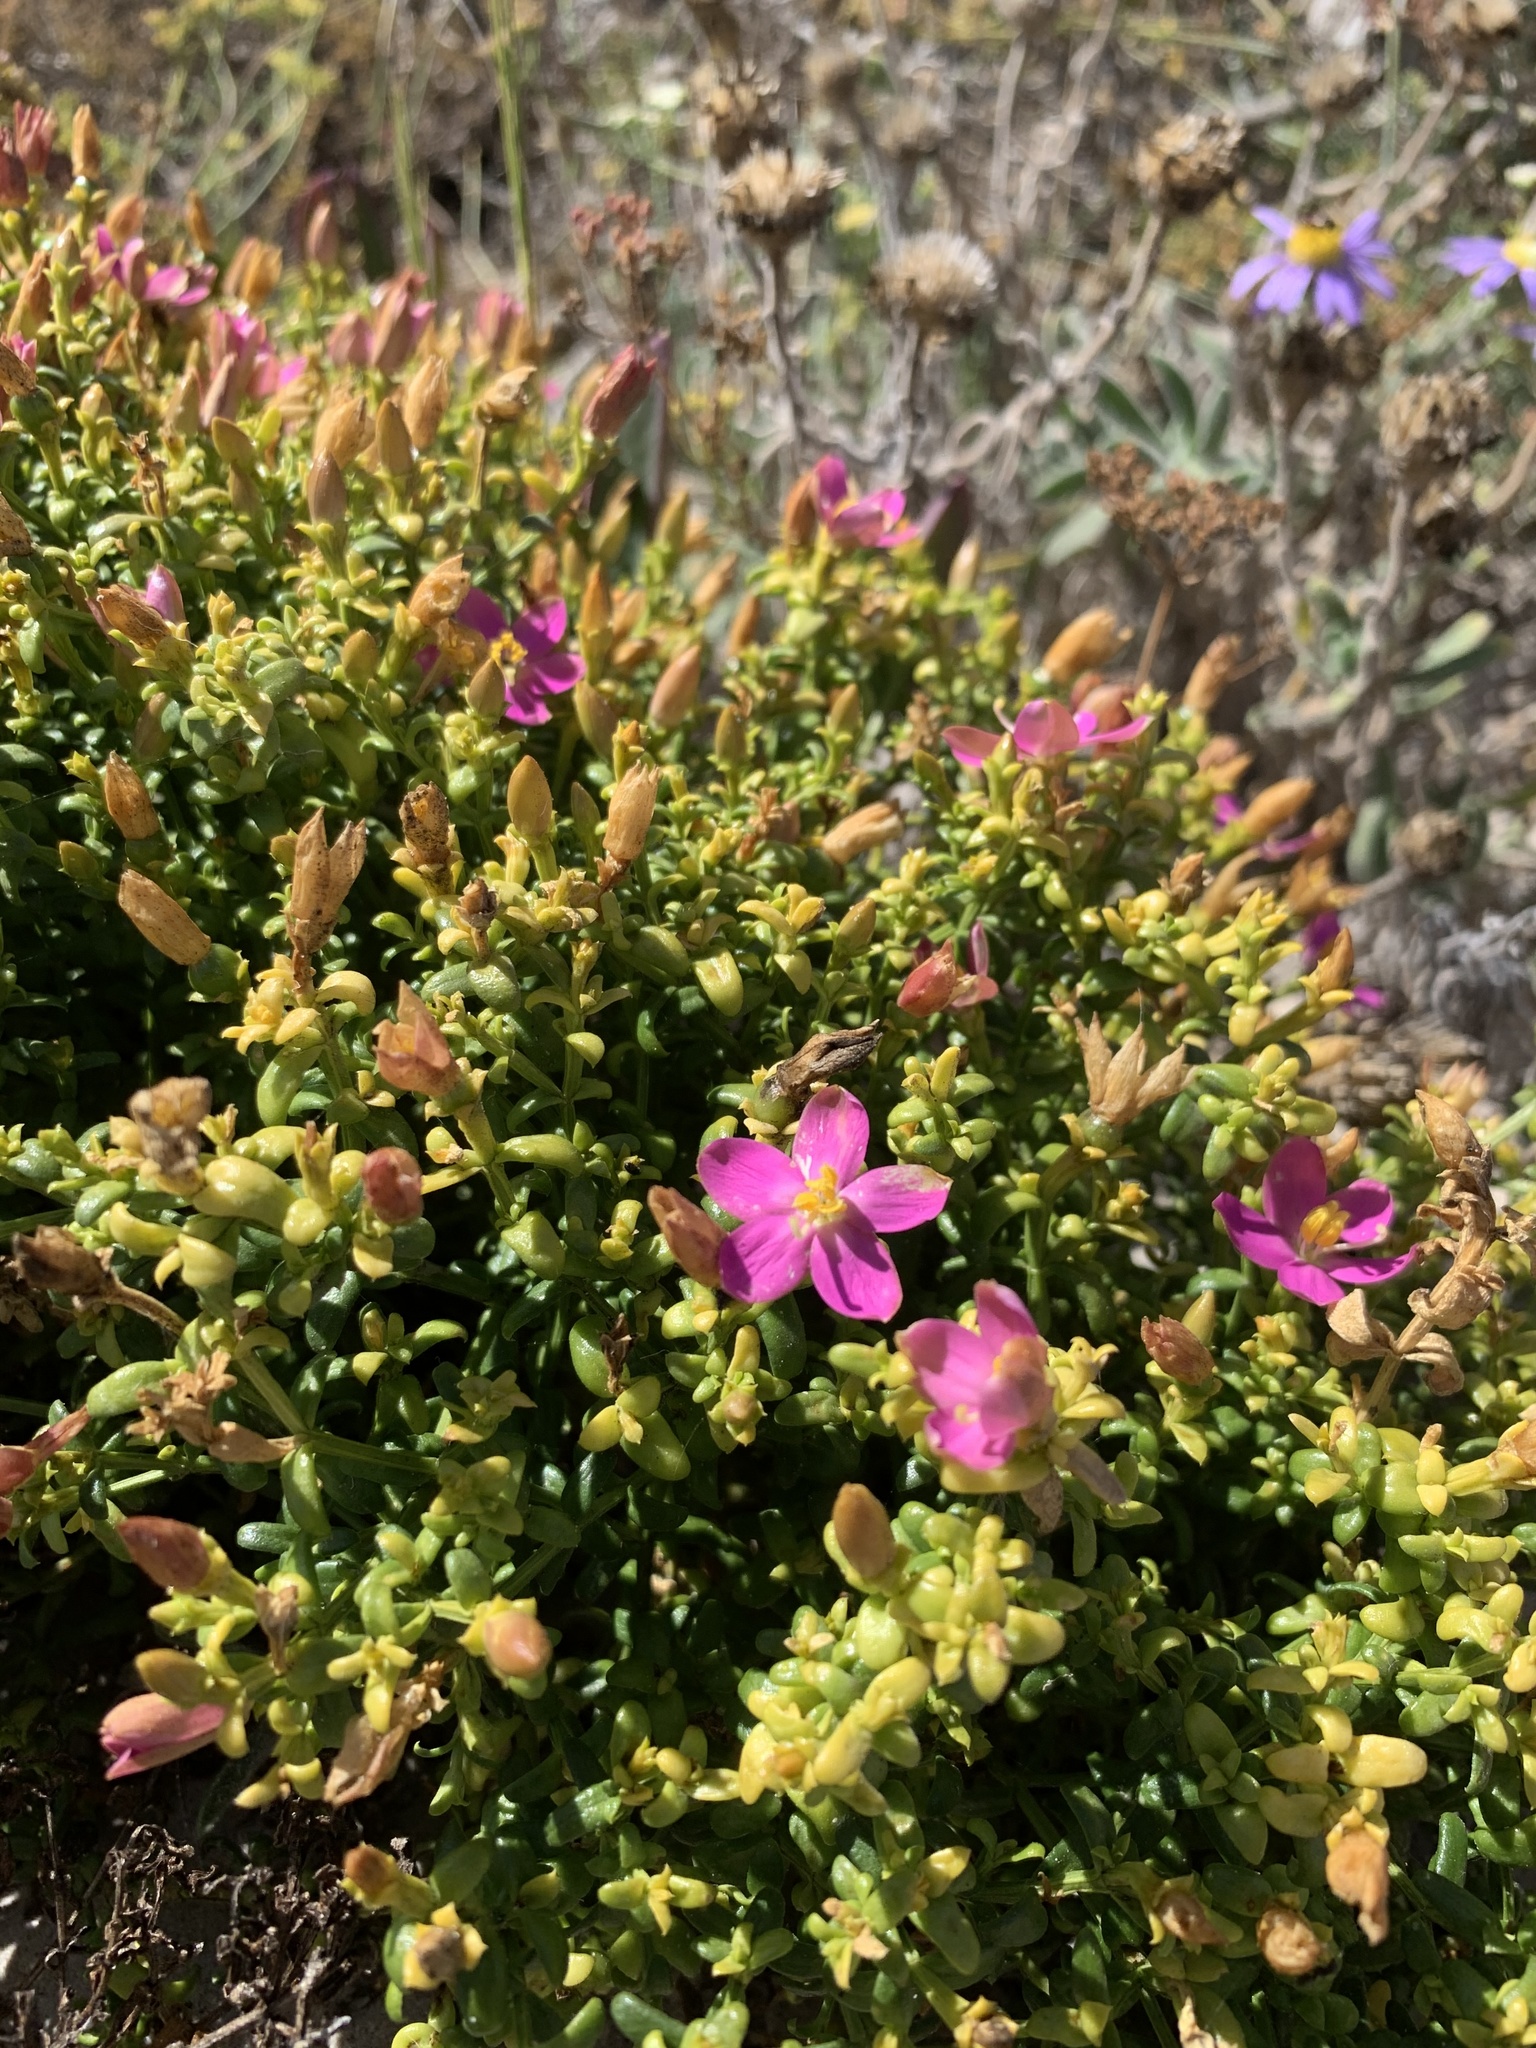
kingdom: Plantae
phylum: Tracheophyta
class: Magnoliopsida
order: Gentianales
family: Gentianaceae
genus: Chironia
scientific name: Chironia baccifera
